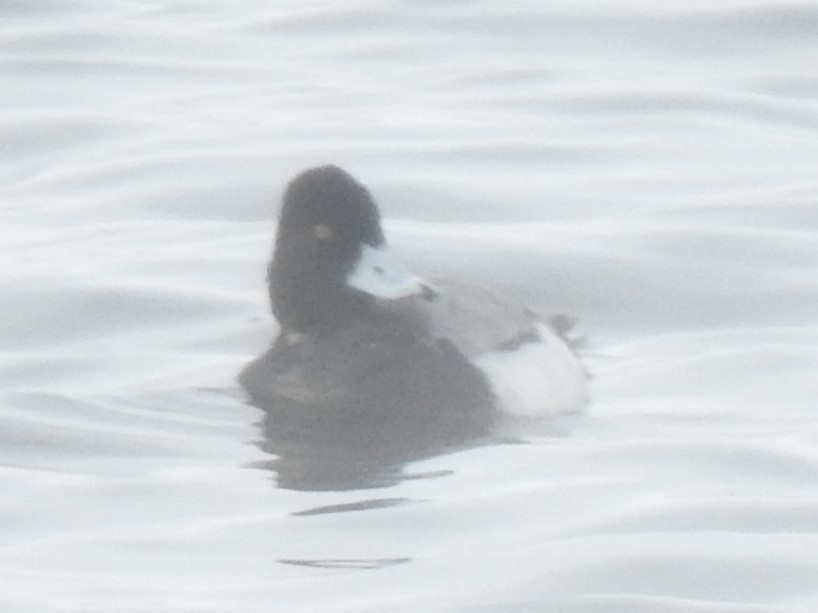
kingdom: Animalia
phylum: Chordata
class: Aves
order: Anseriformes
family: Anatidae
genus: Aythya
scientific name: Aythya affinis
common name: Lesser scaup
